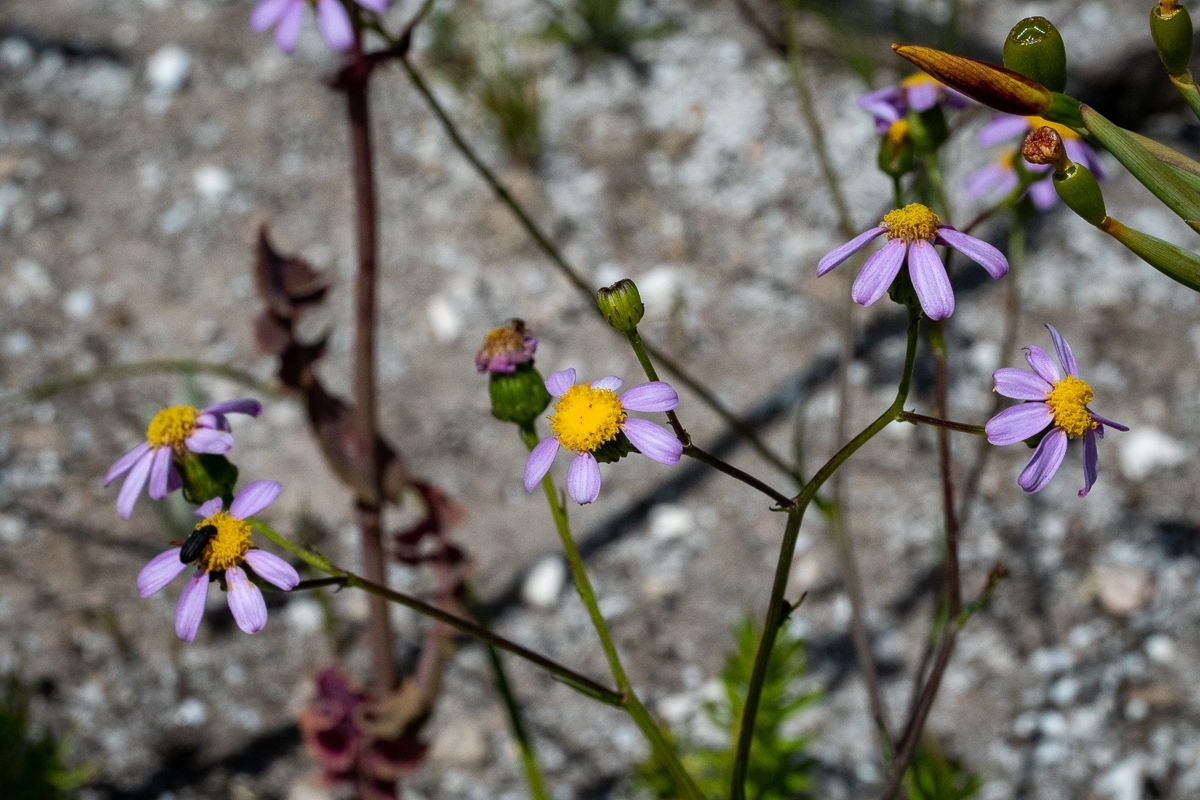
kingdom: Plantae
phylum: Tracheophyta
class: Magnoliopsida
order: Asterales
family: Asteraceae
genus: Senecio
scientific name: Senecio umbellatus
